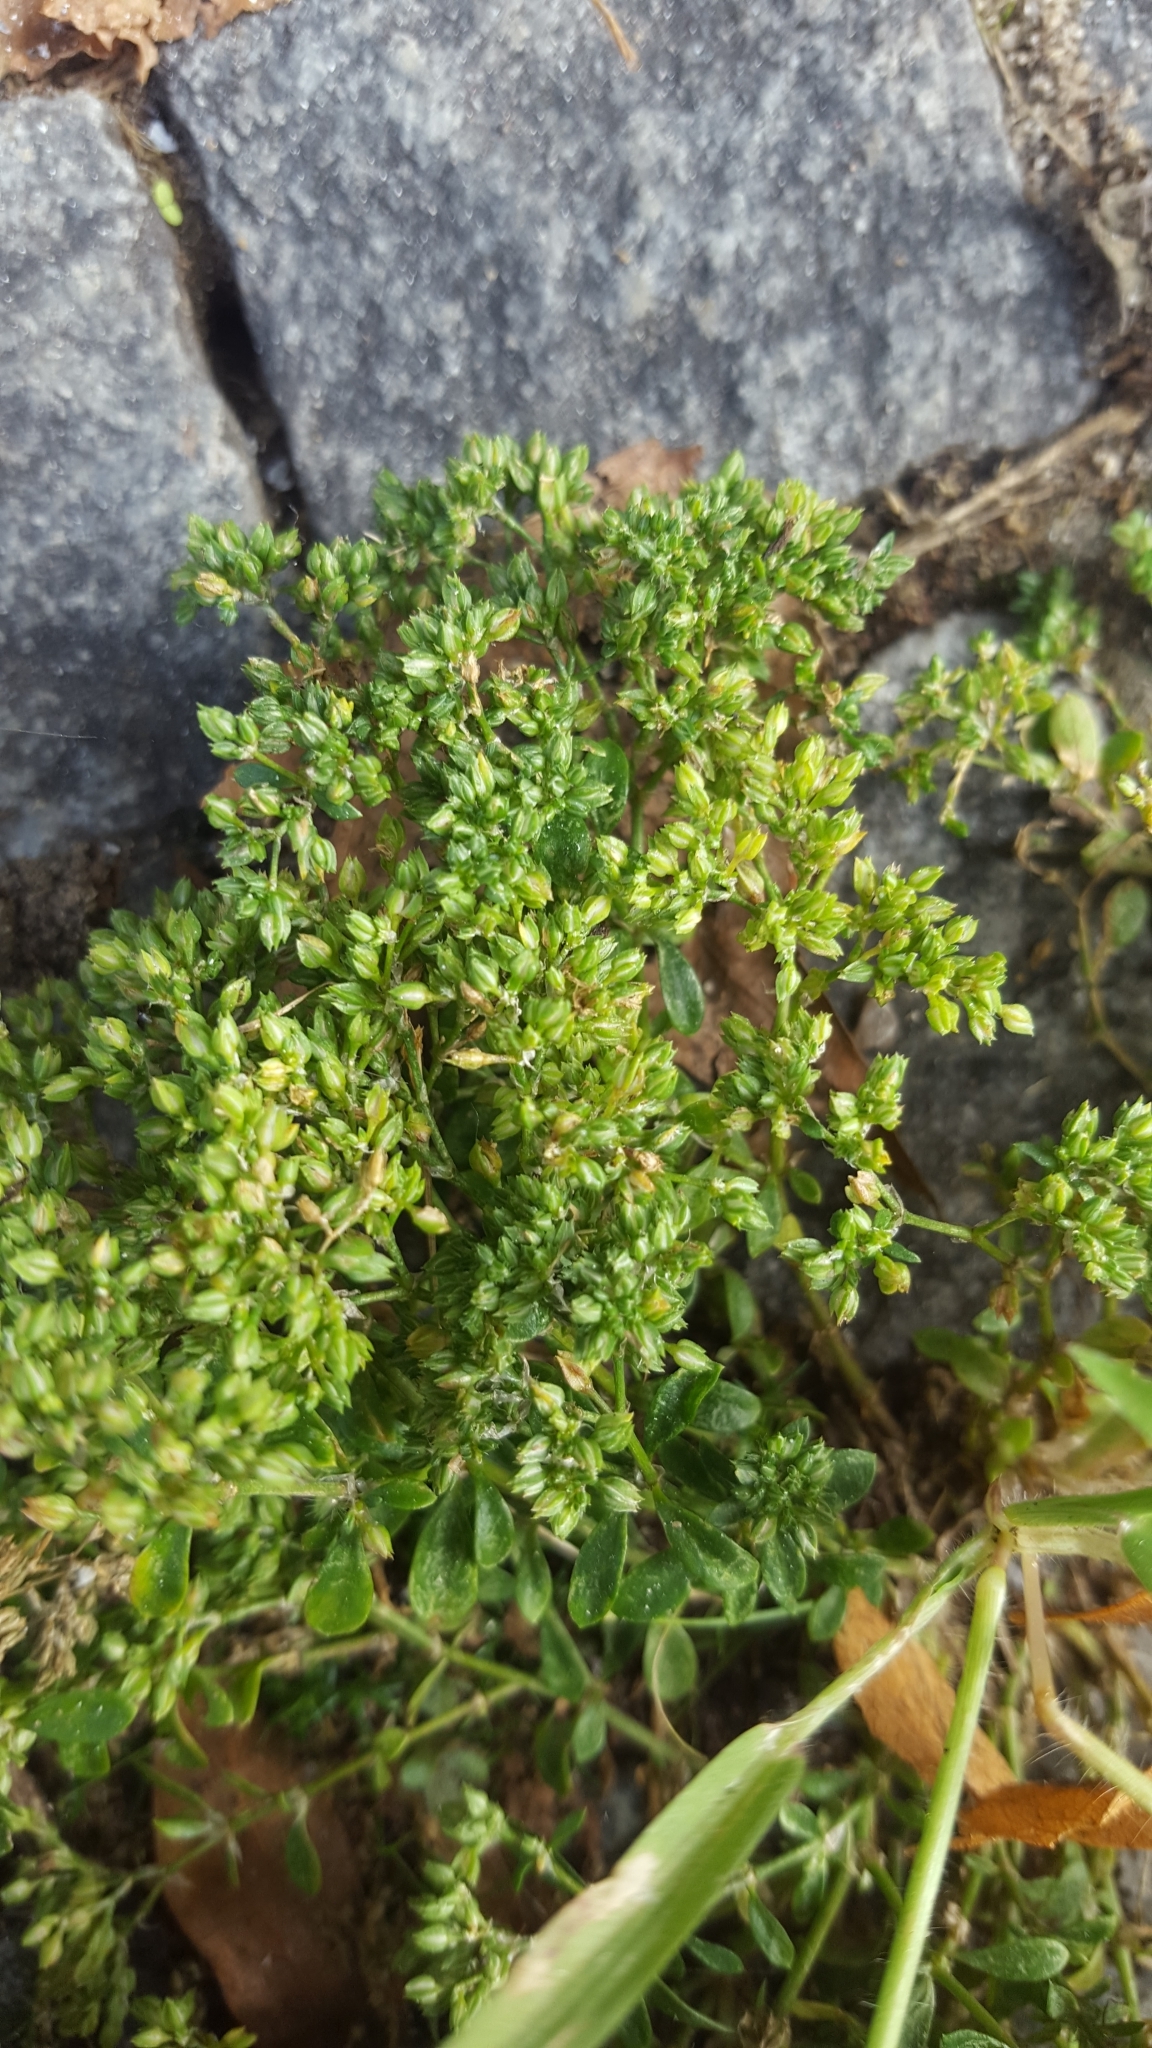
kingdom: Plantae
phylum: Tracheophyta
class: Magnoliopsida
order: Caryophyllales
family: Caryophyllaceae
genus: Polycarpon
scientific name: Polycarpon tetraphyllum
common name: Four-leaved all-seed
